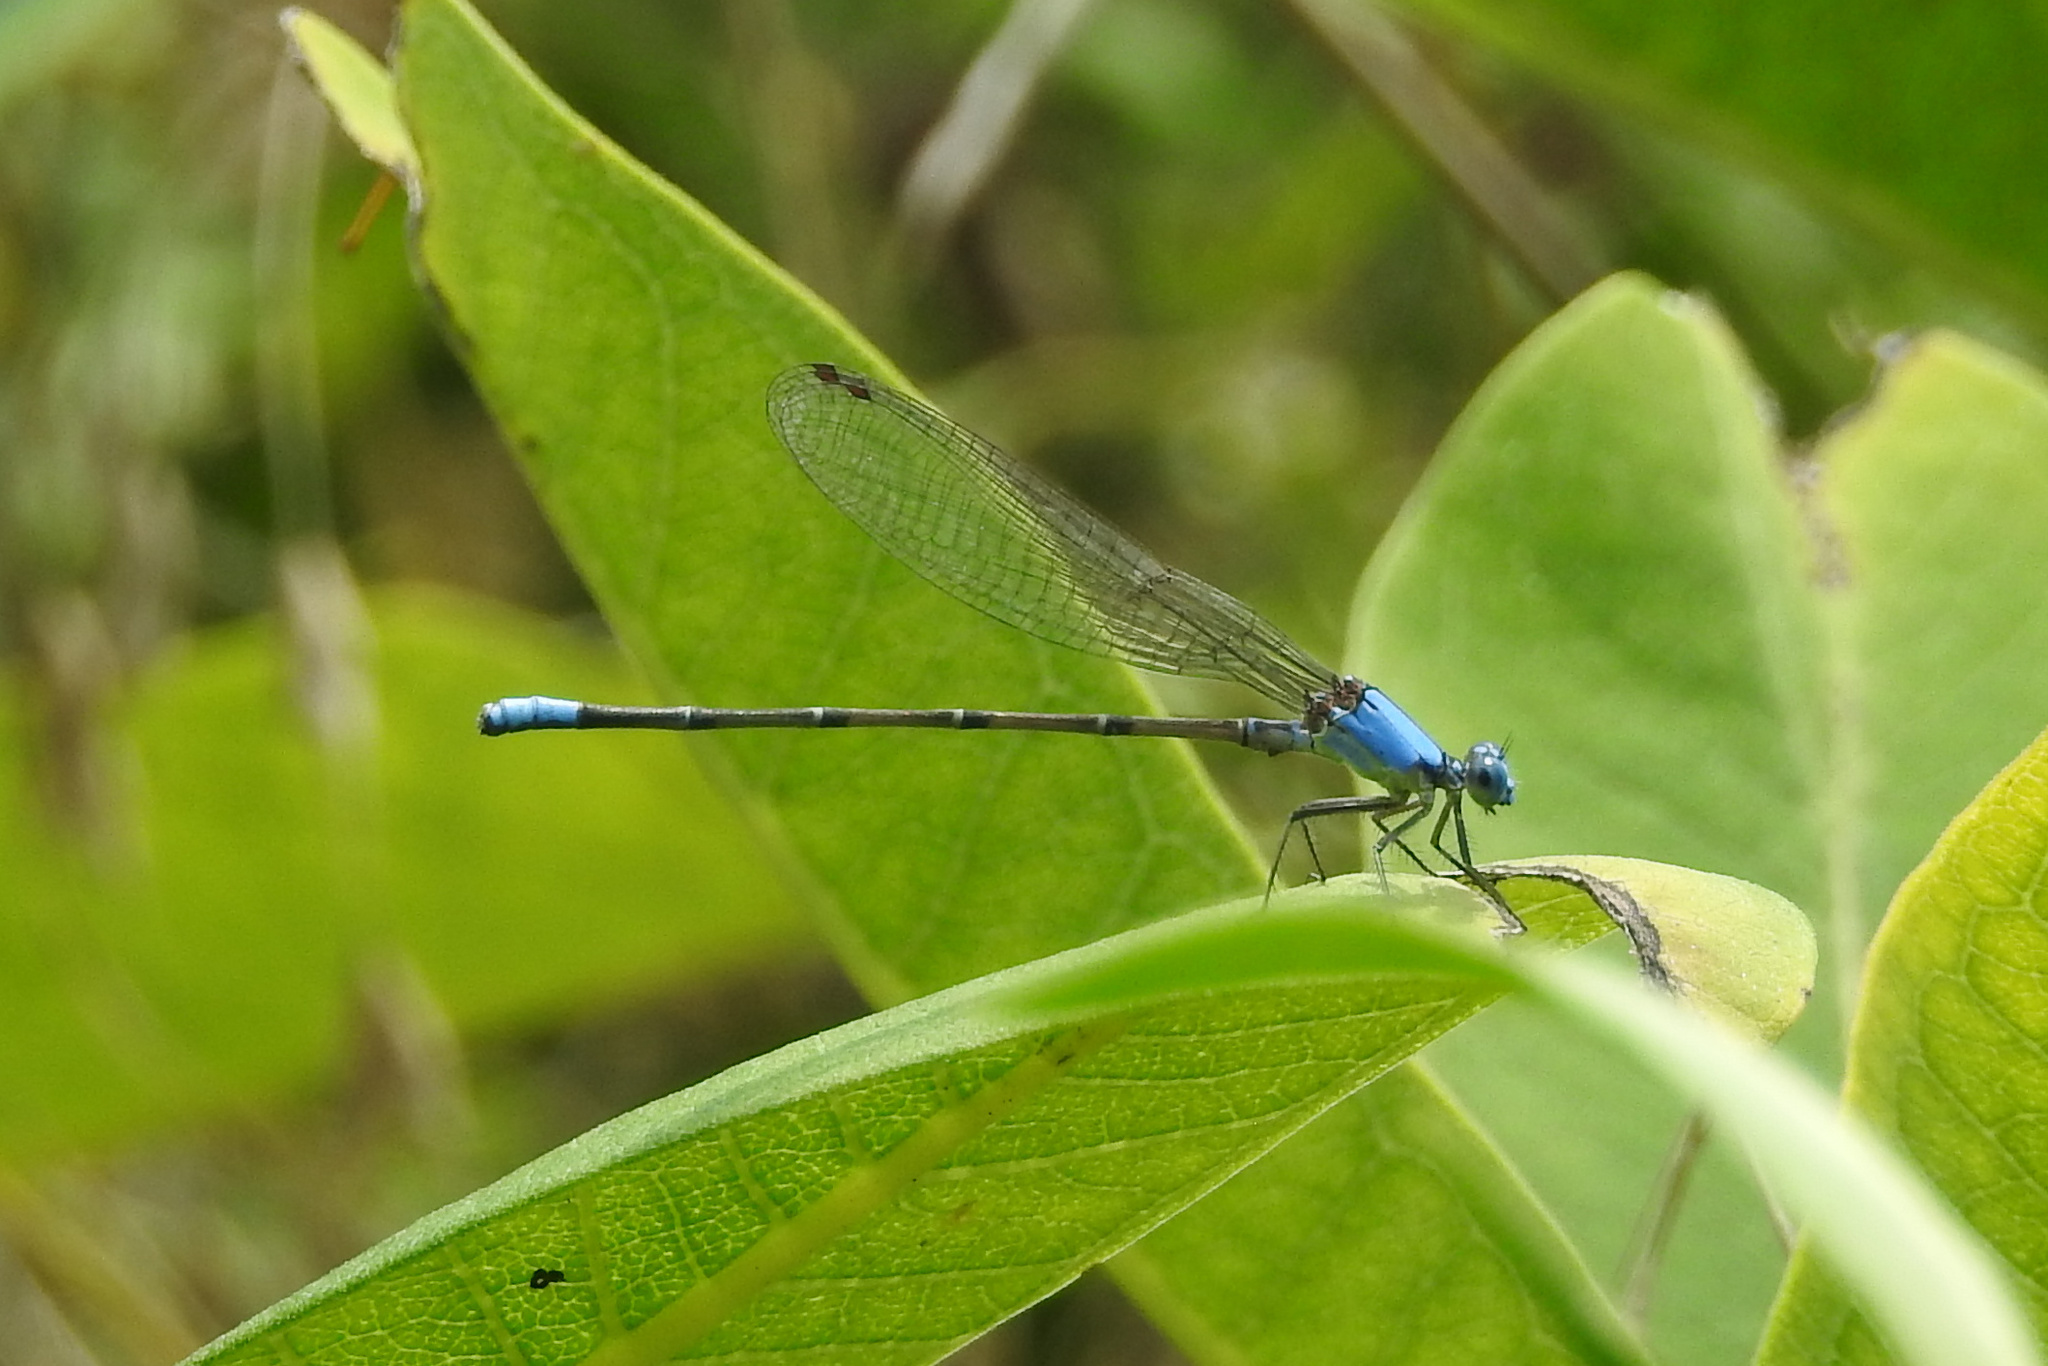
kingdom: Animalia
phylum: Arthropoda
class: Insecta
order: Odonata
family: Coenagrionidae
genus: Argia
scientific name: Argia apicalis
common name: Blue-fronted dancer
